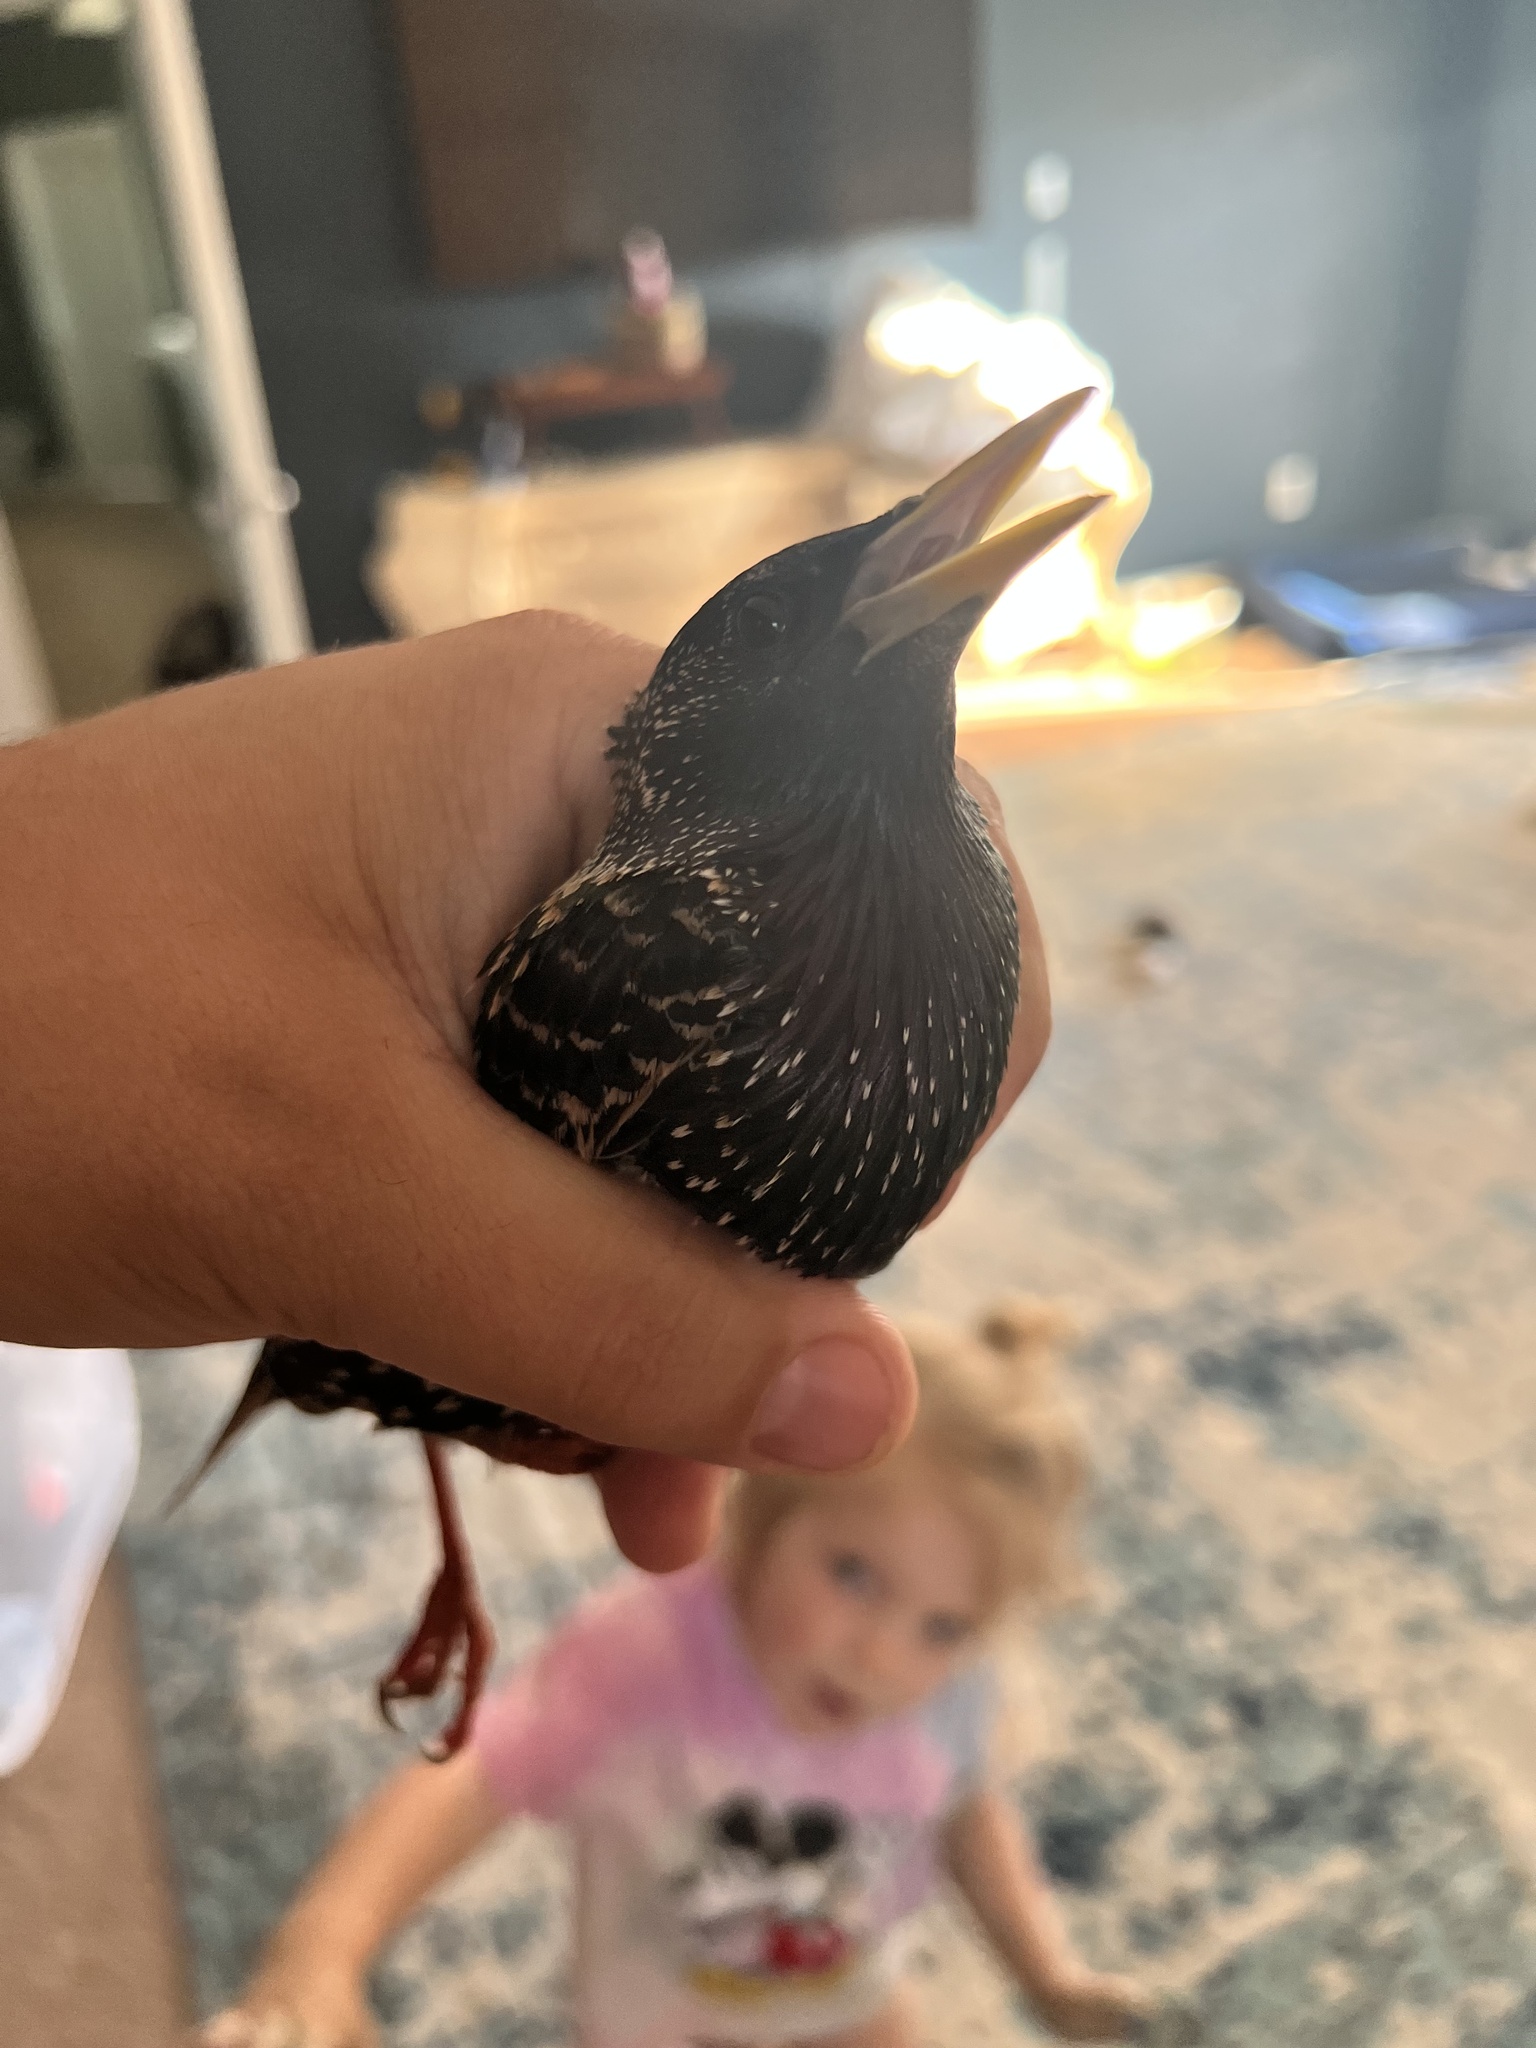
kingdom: Animalia
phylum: Chordata
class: Aves
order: Passeriformes
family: Sturnidae
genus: Sturnus
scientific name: Sturnus vulgaris
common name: Common starling
